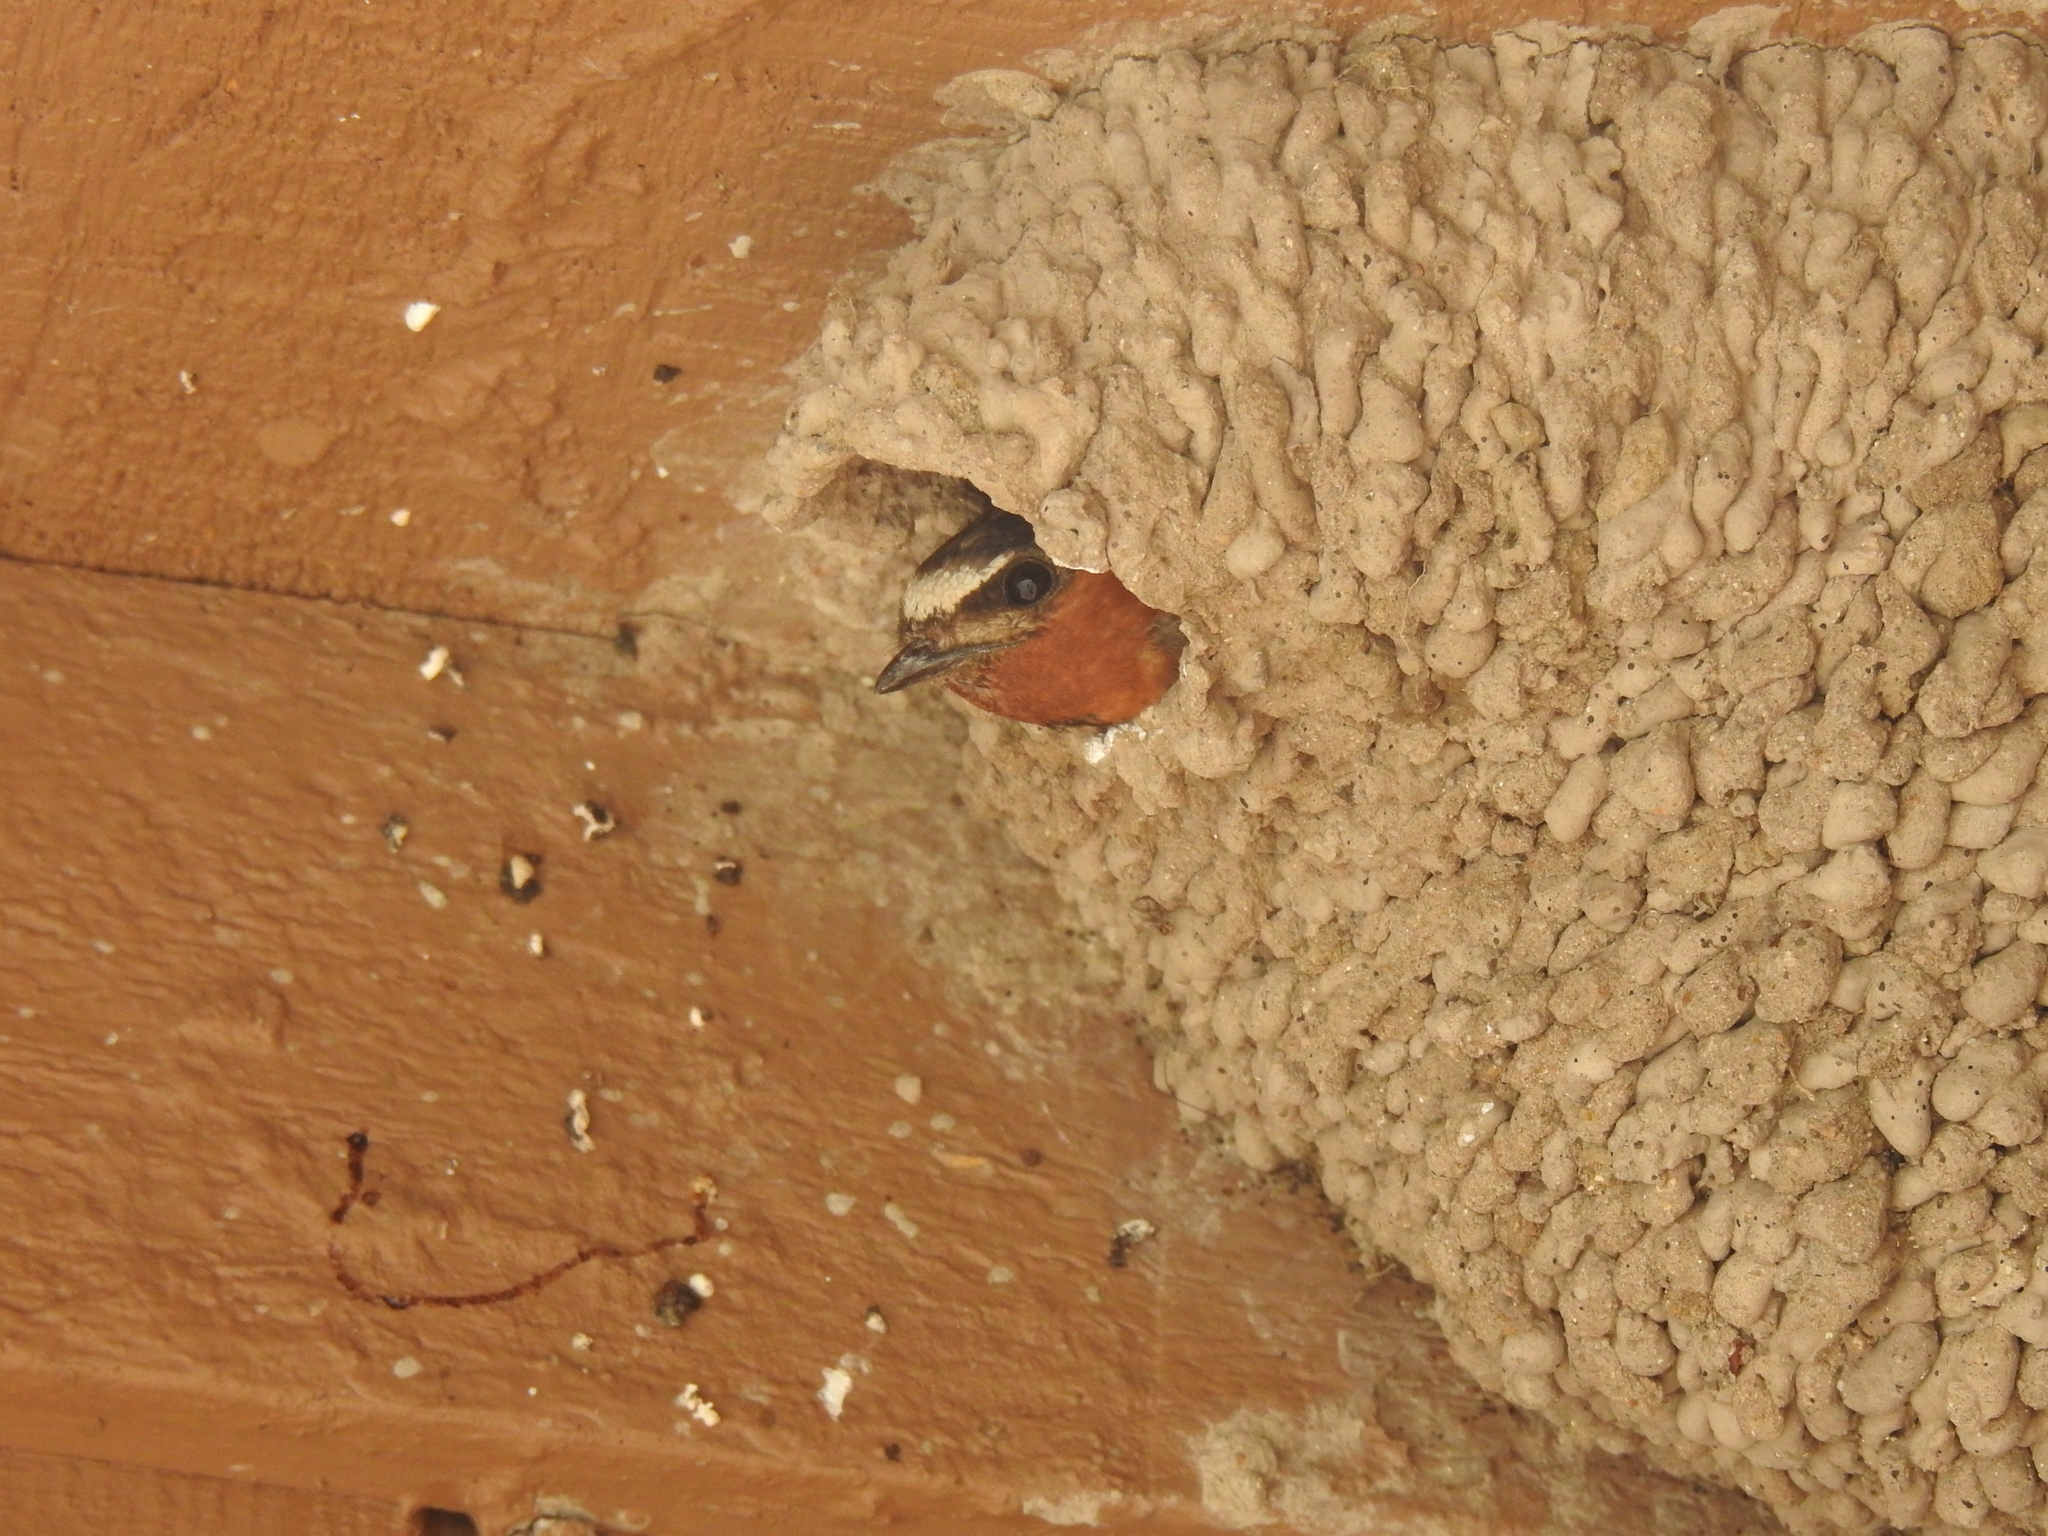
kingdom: Animalia
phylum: Chordata
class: Aves
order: Passeriformes
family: Hirundinidae
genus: Petrochelidon
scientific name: Petrochelidon pyrrhonota
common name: American cliff swallow
